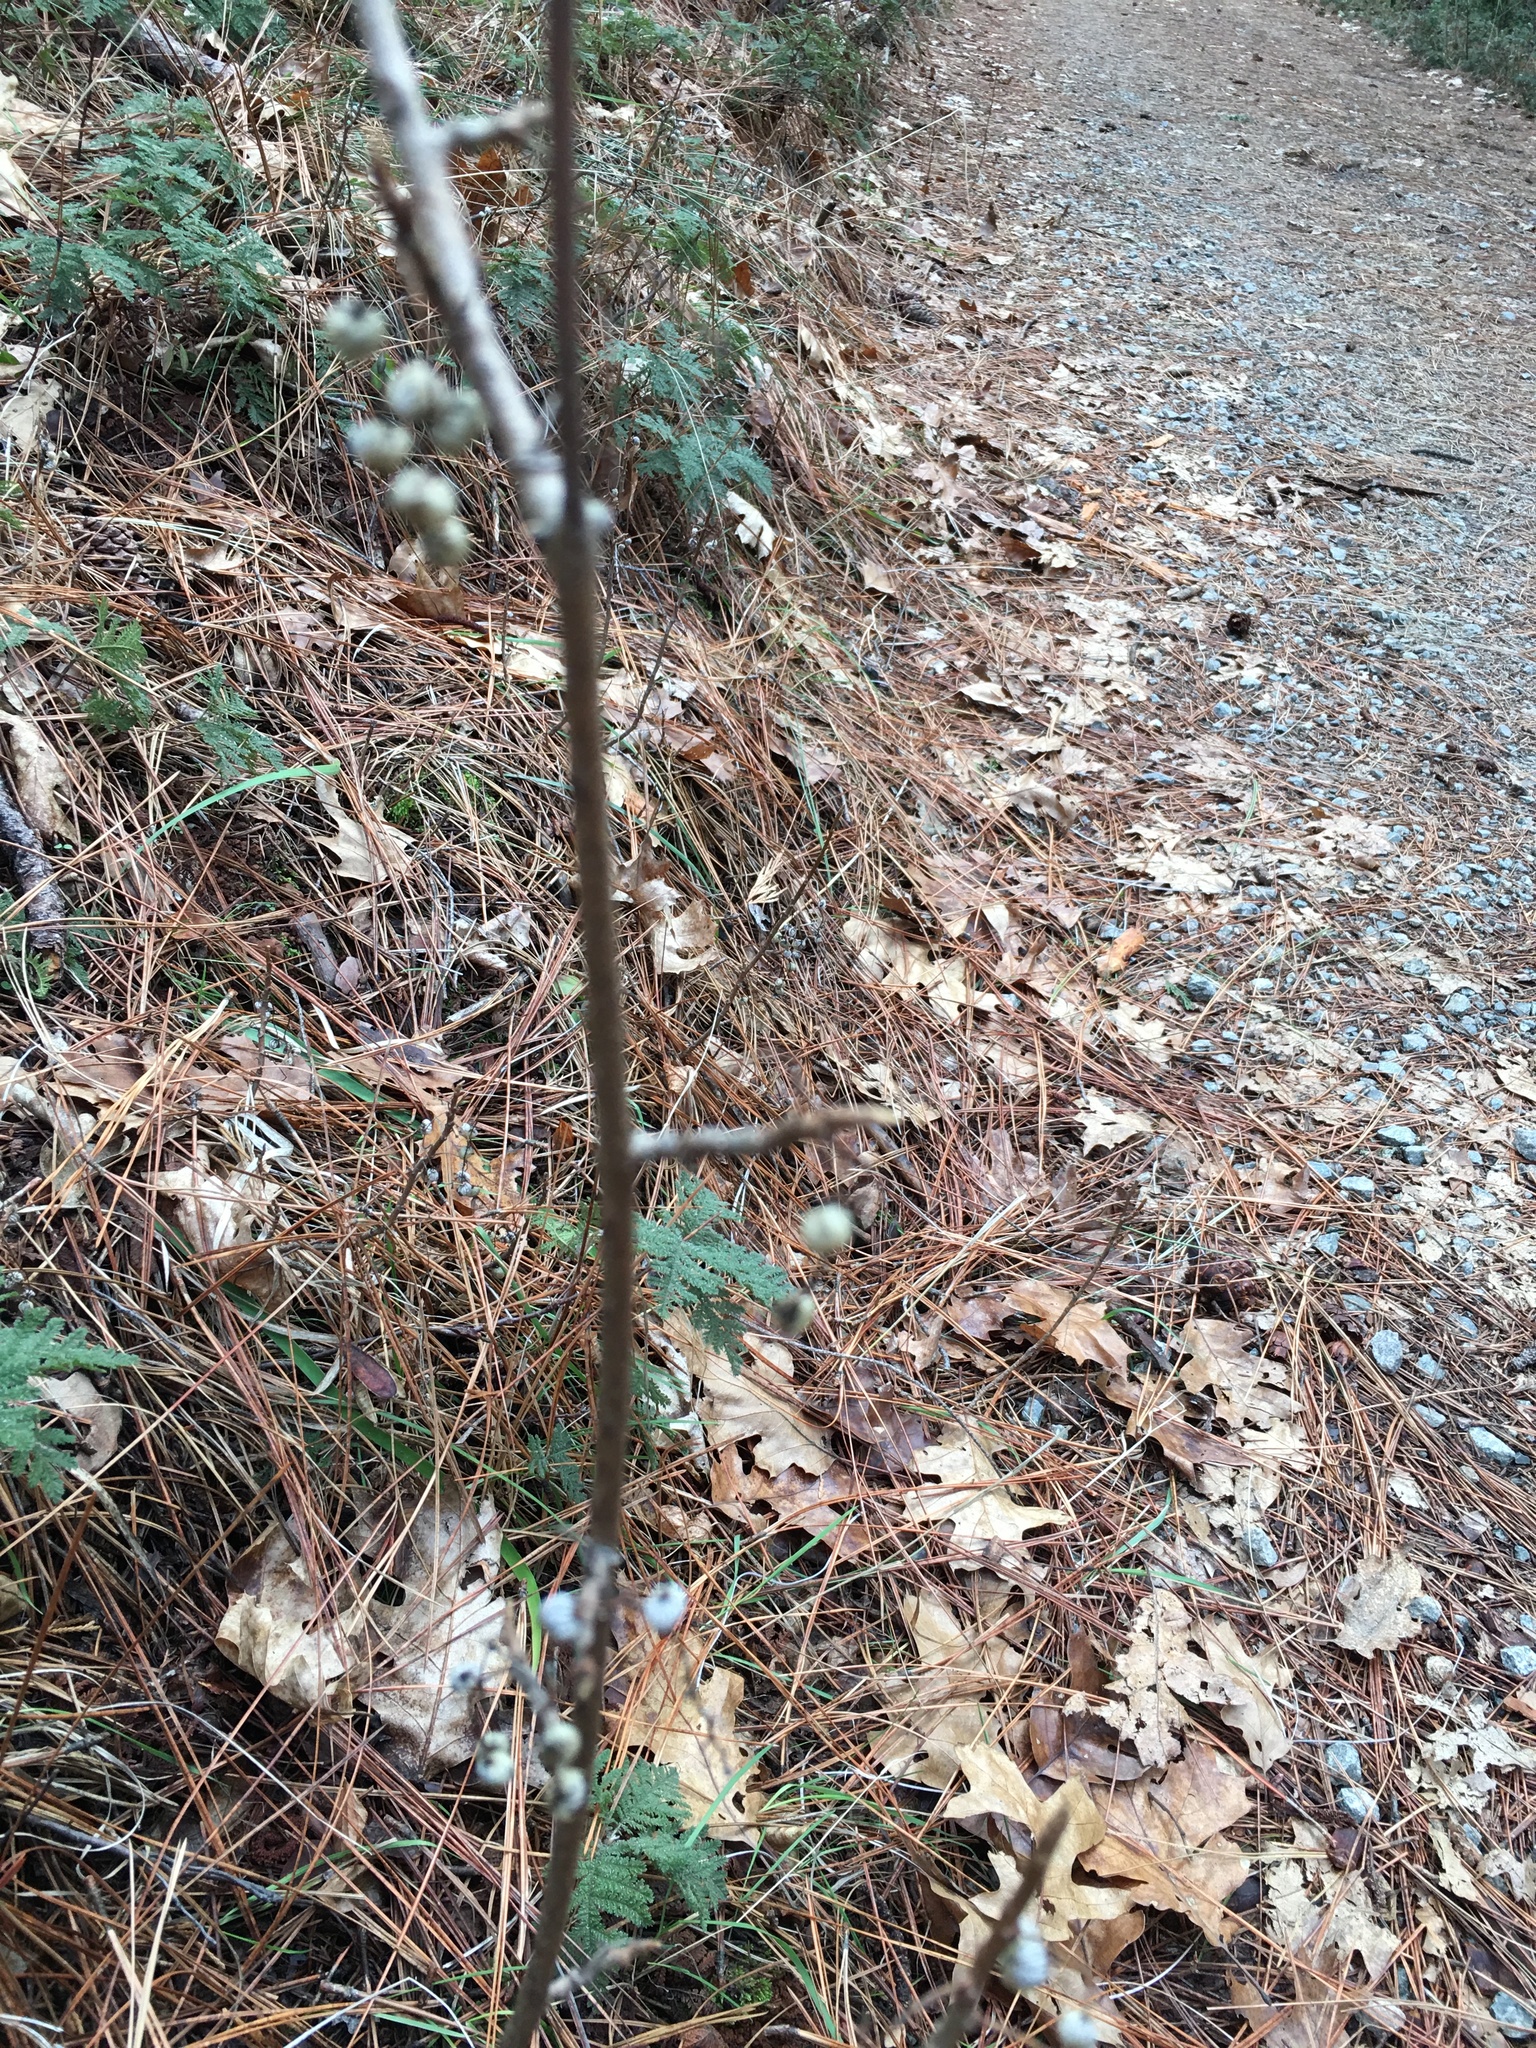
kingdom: Plantae
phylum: Tracheophyta
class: Magnoliopsida
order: Sapindales
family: Anacardiaceae
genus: Toxicodendron
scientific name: Toxicodendron diversilobum
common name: Pacific poison-oak
